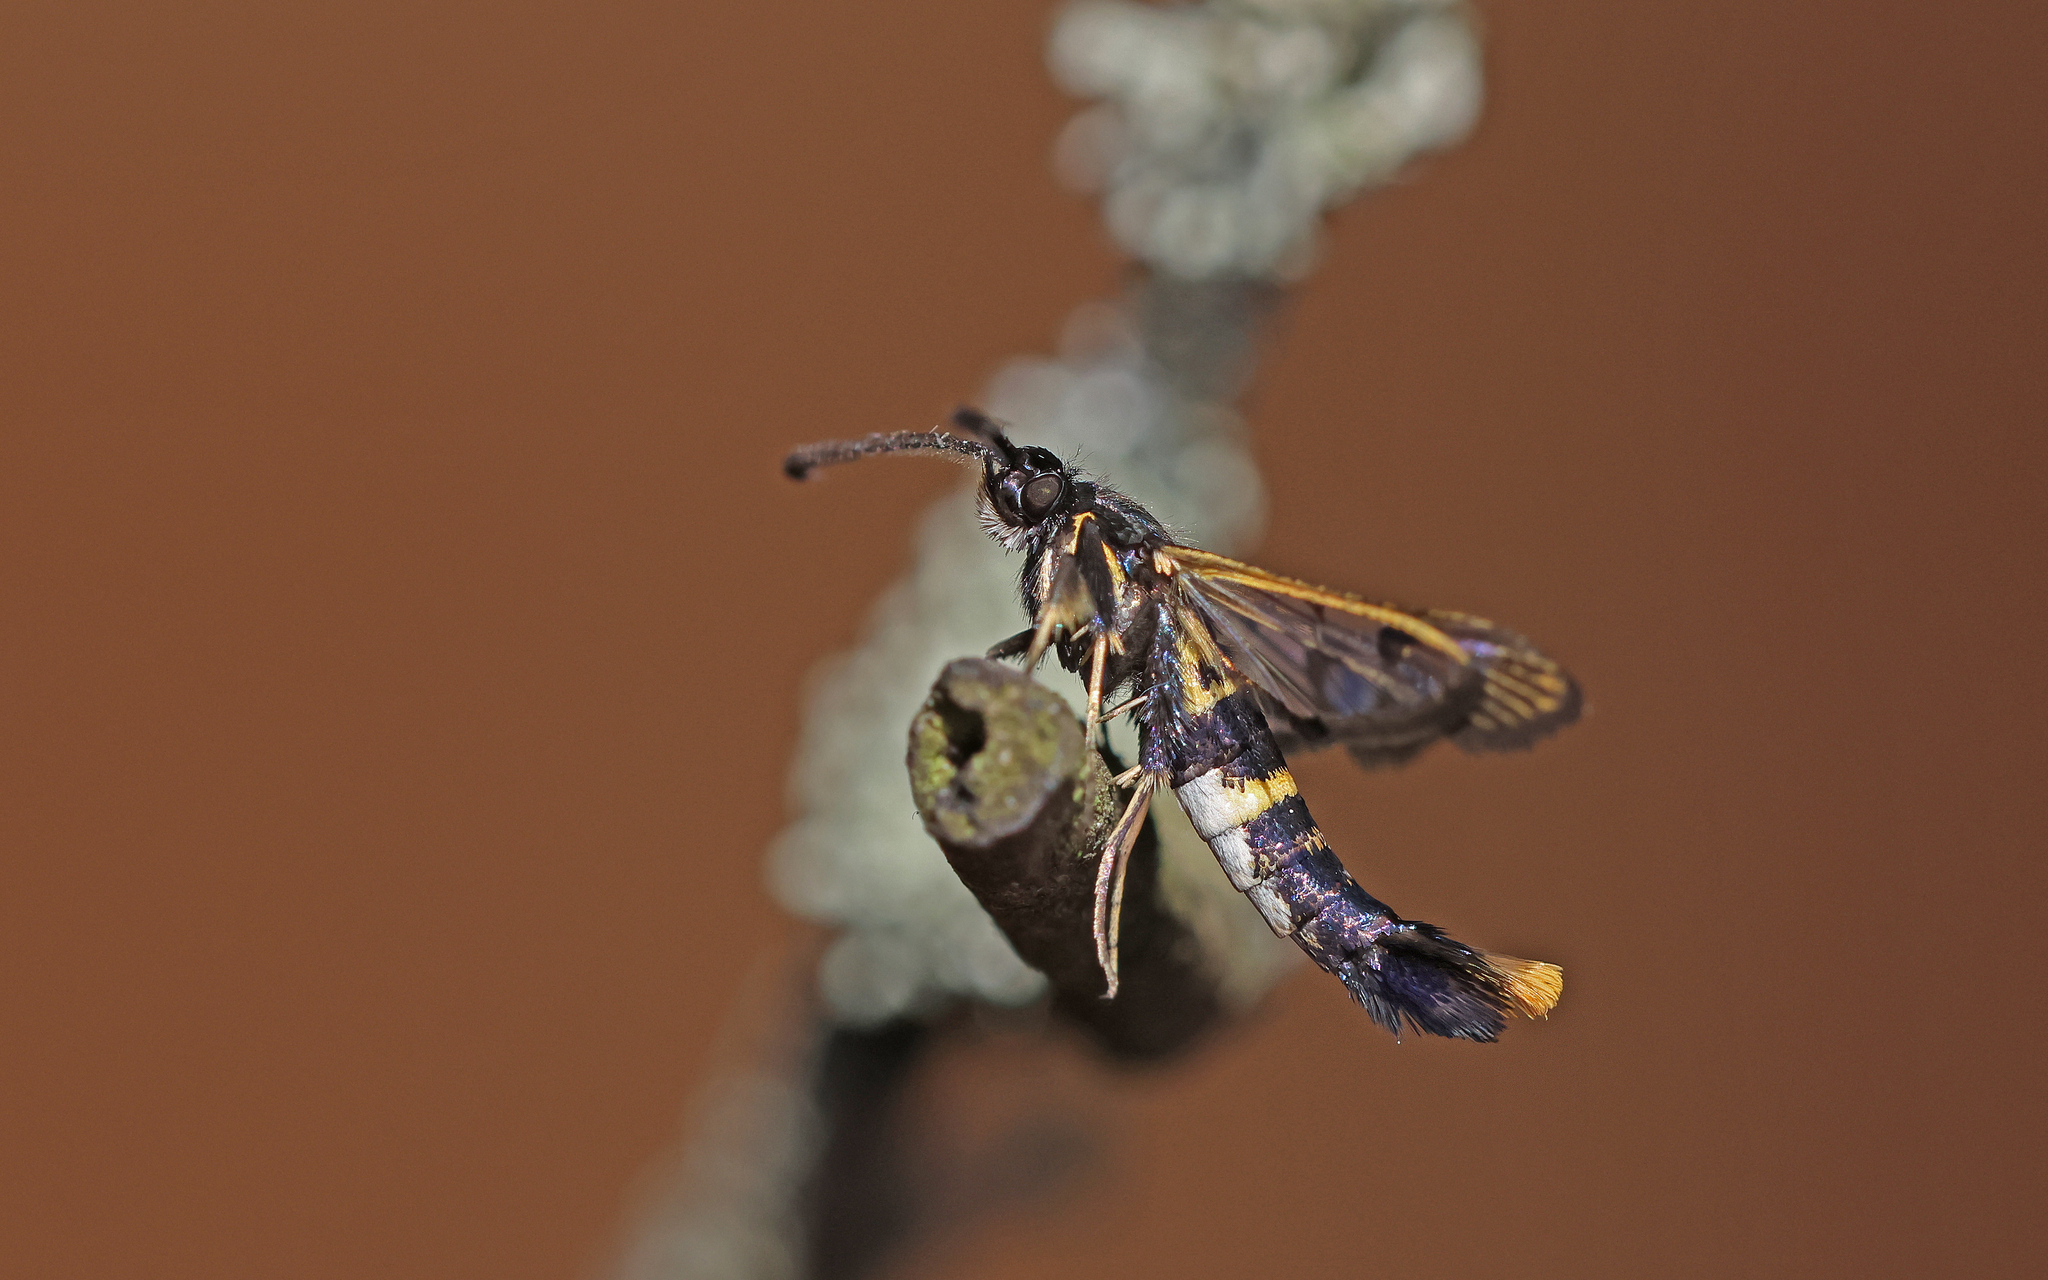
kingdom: Animalia
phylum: Arthropoda
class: Insecta
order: Lepidoptera
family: Sesiidae
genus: Synanthedon
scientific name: Synanthedon andrenaeformis
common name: Orange-tailed clearwing
